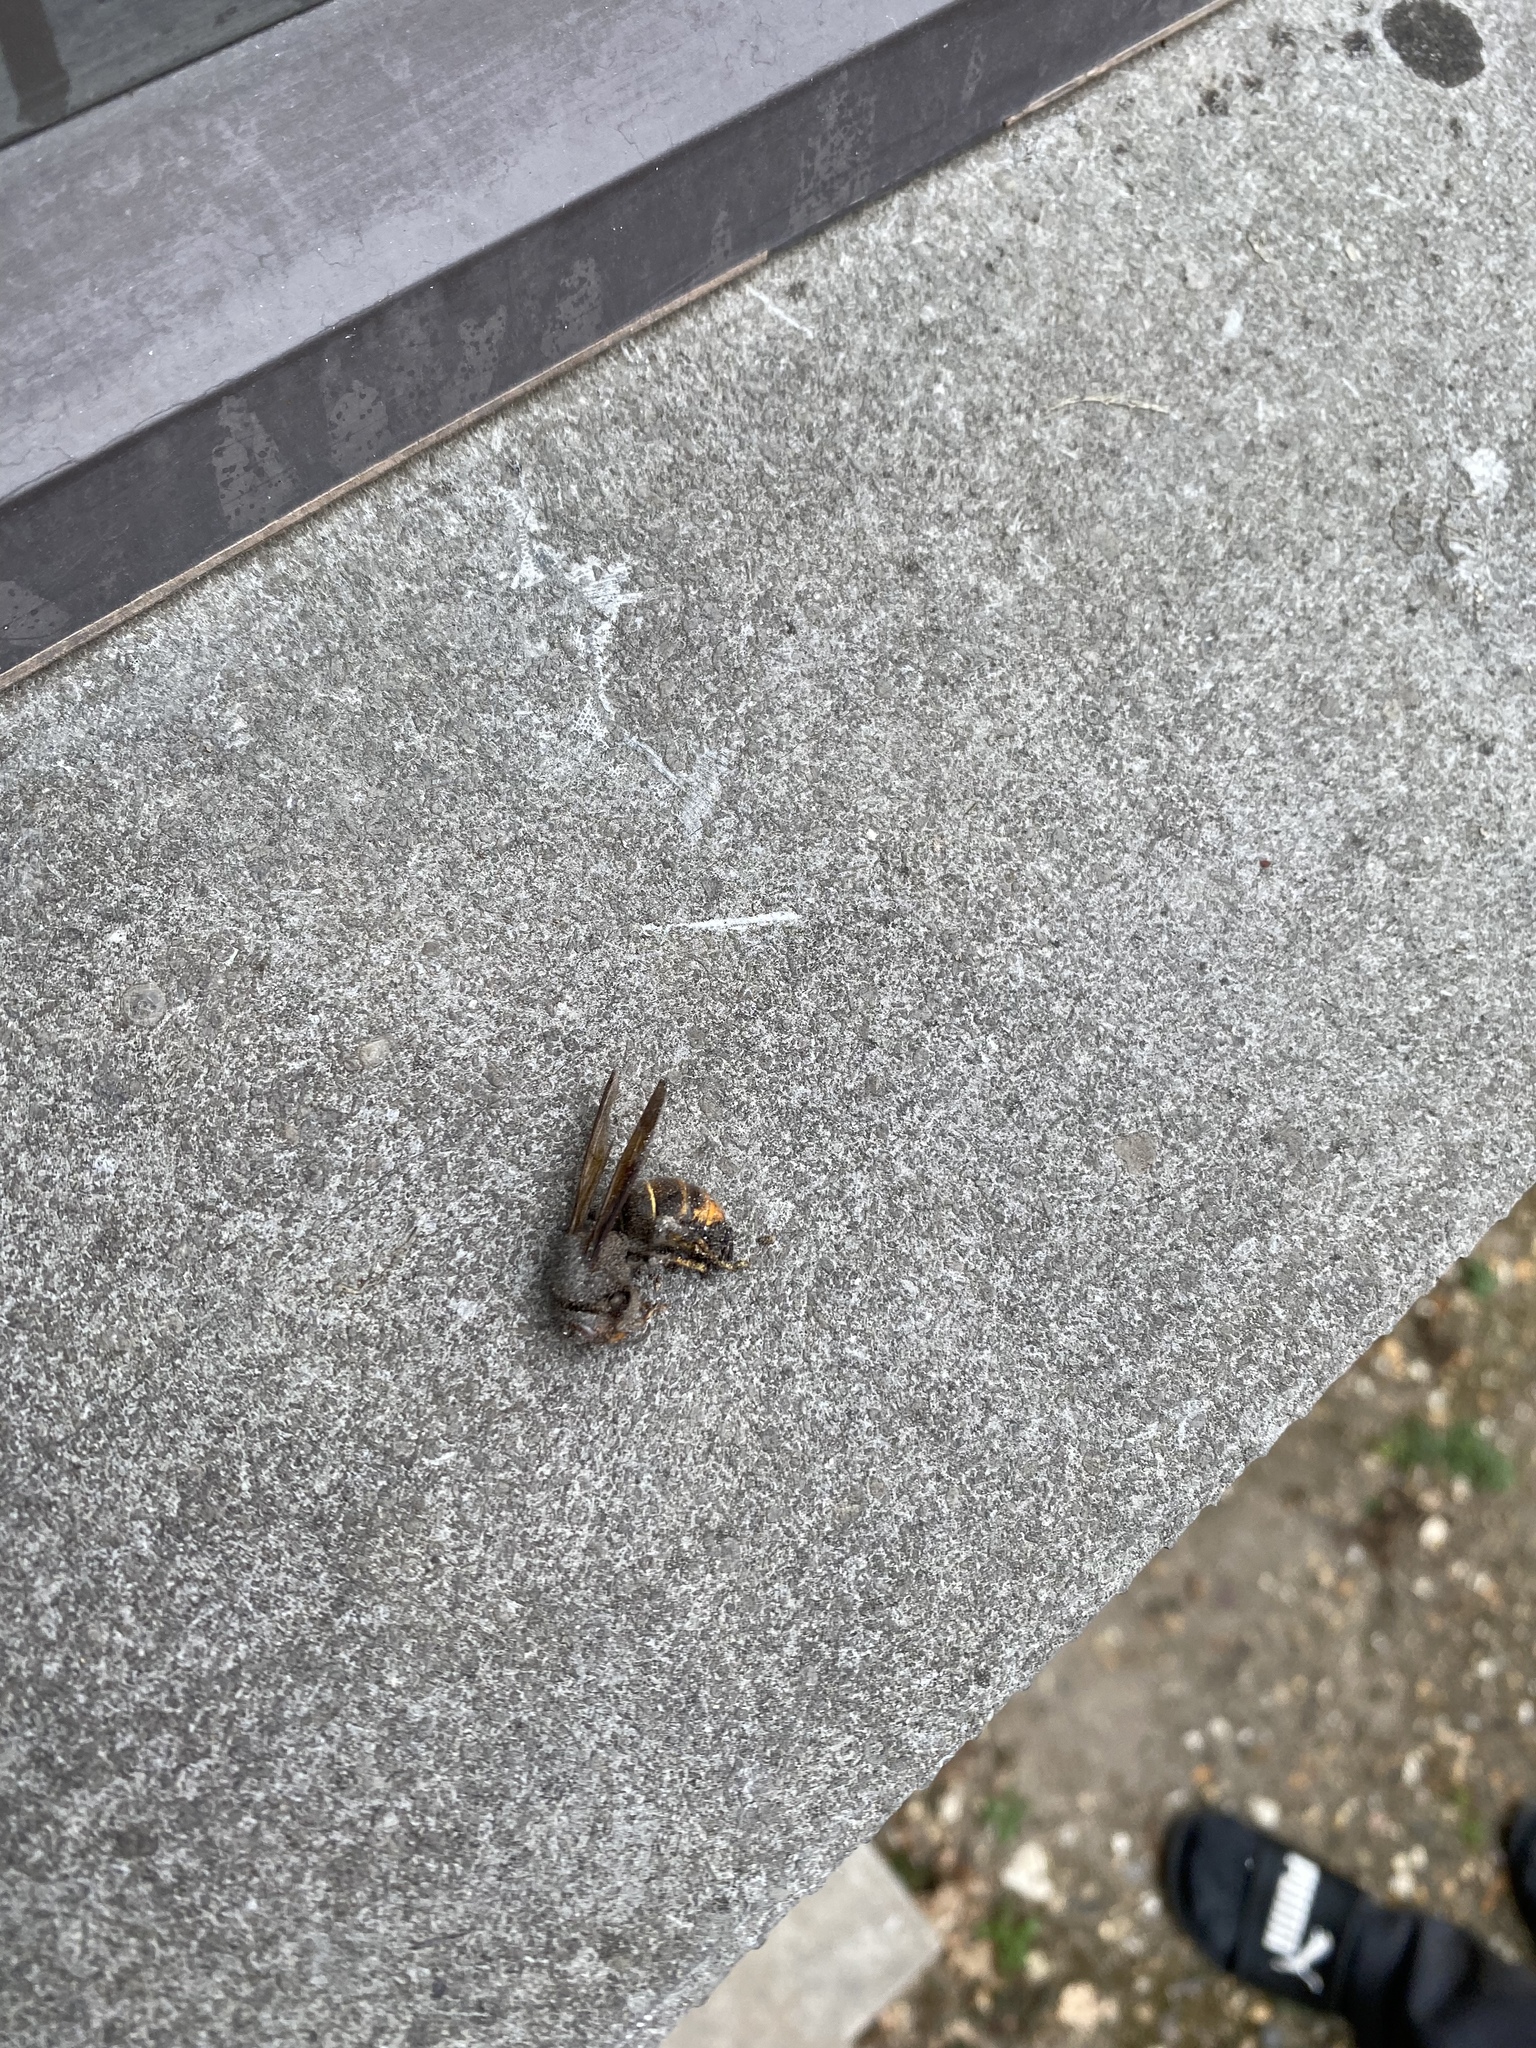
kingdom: Animalia
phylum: Arthropoda
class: Insecta
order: Hymenoptera
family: Vespidae
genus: Vespa
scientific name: Vespa velutina
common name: Asian hornet
